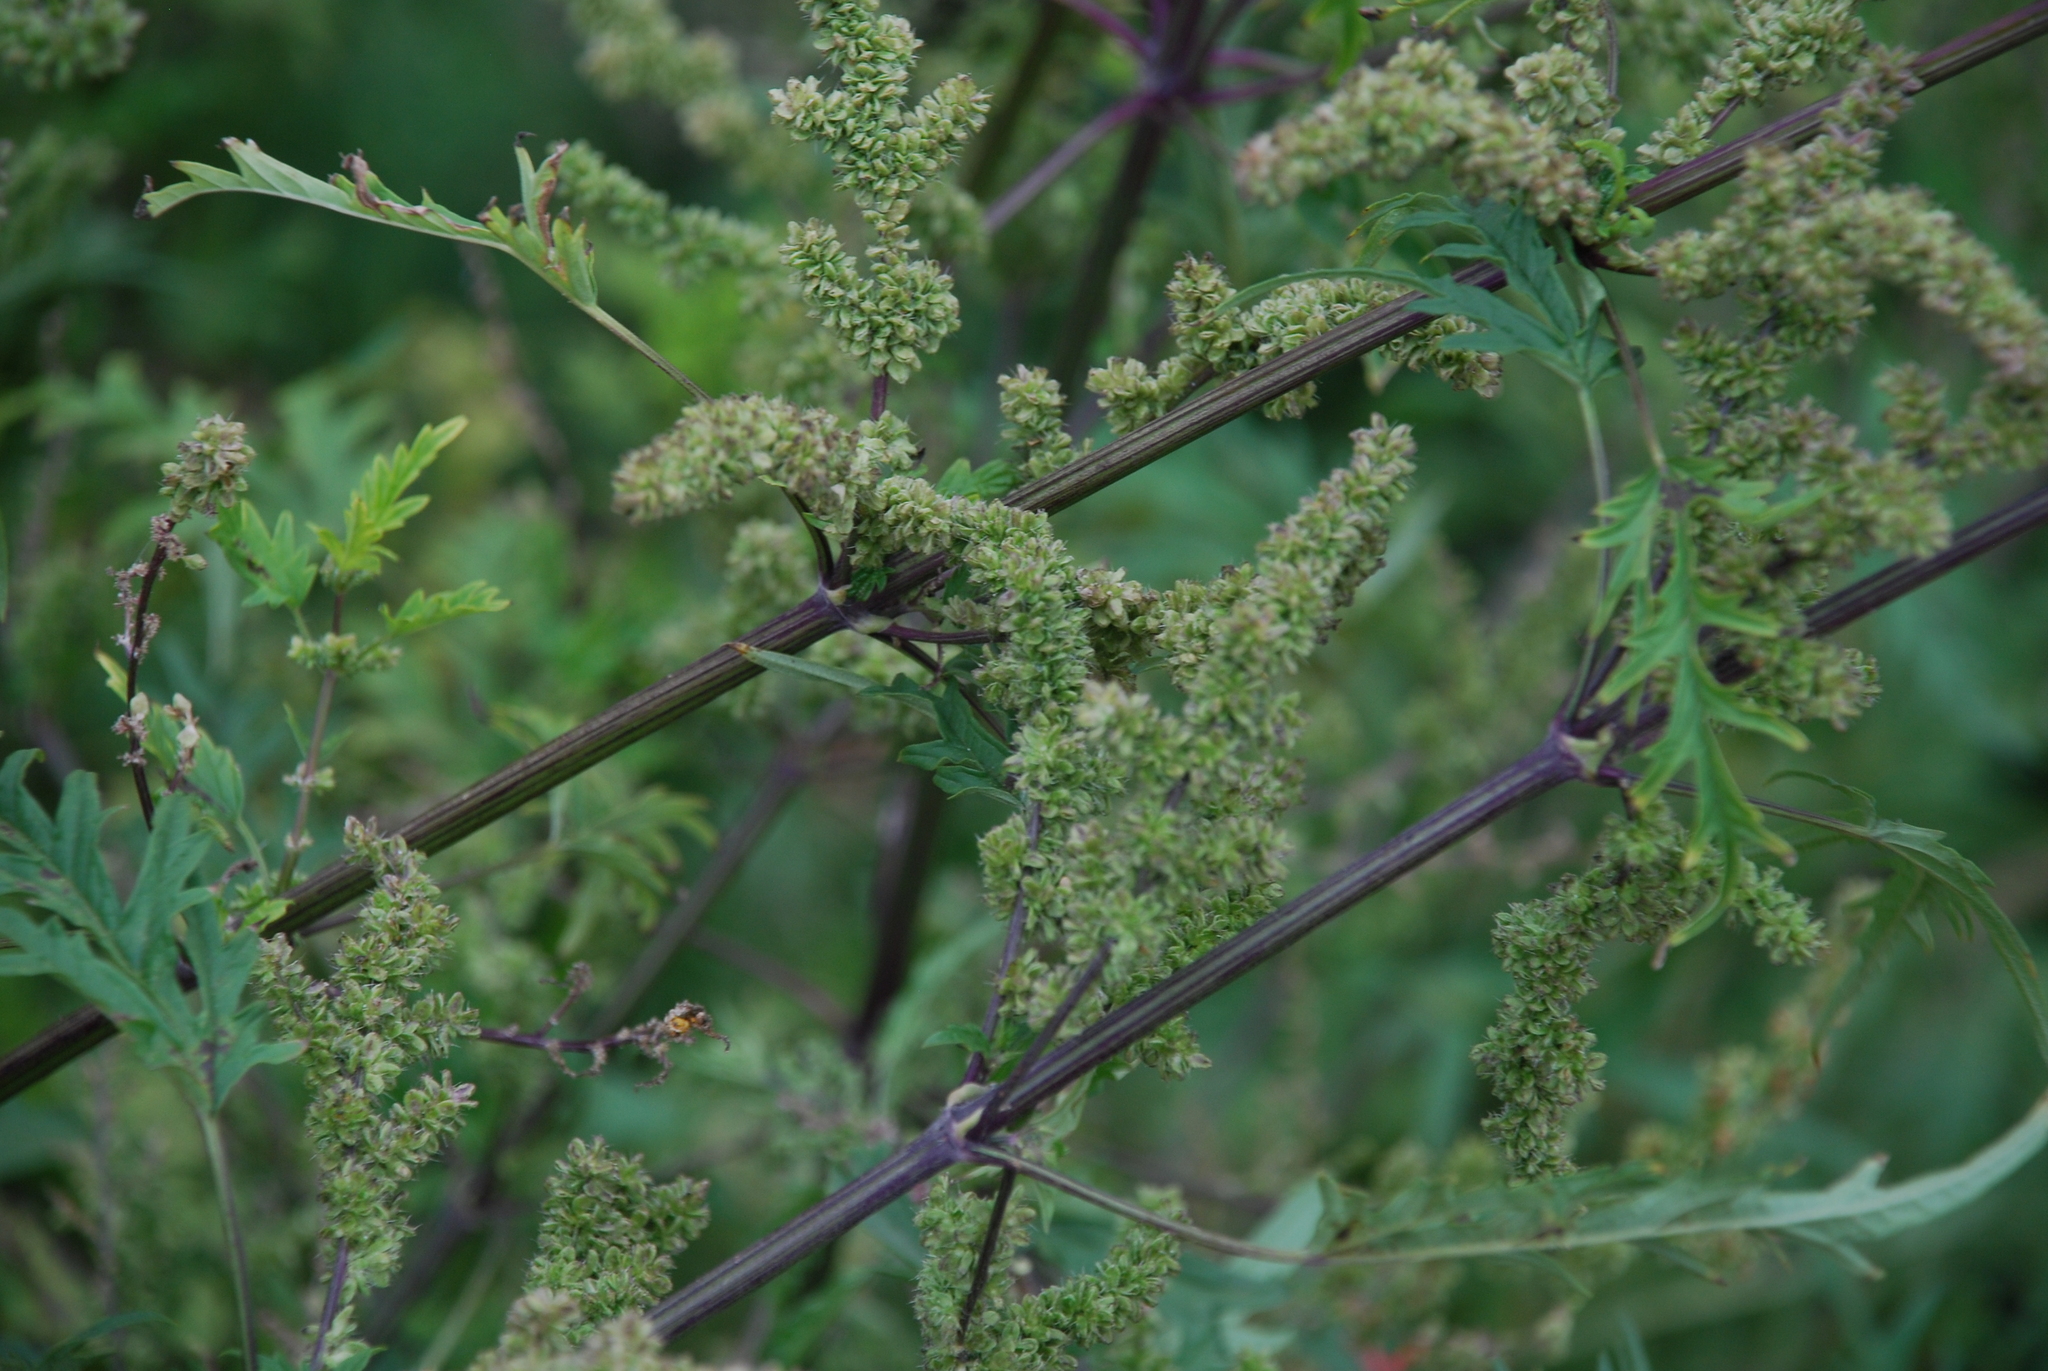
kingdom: Plantae
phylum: Tracheophyta
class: Magnoliopsida
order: Rosales
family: Urticaceae
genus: Urtica
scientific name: Urtica cannabina
